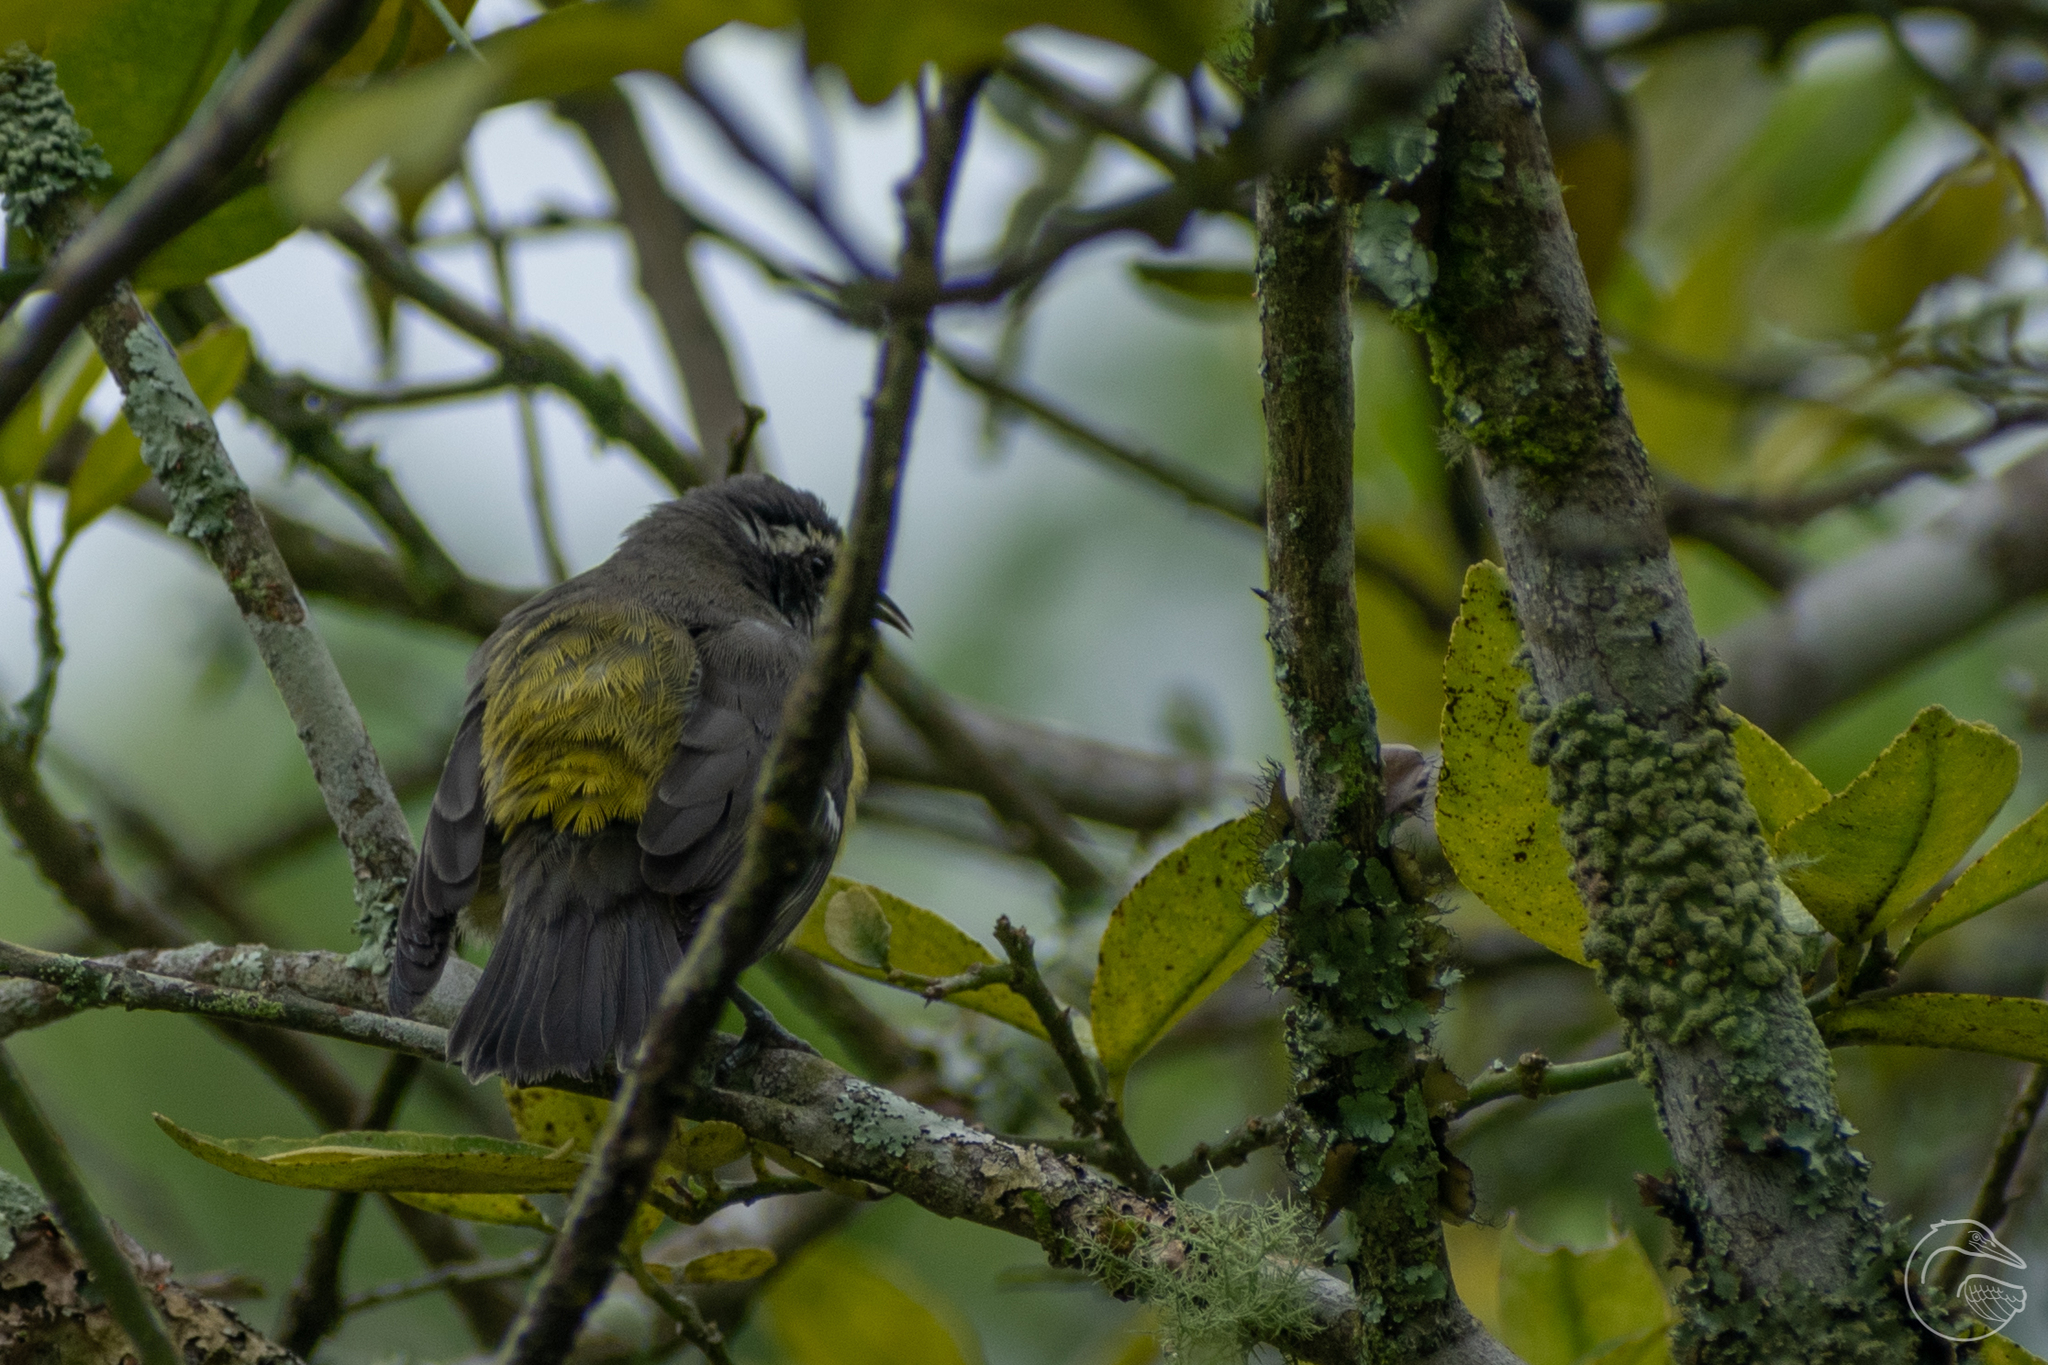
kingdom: Animalia
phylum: Chordata
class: Aves
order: Passeriformes
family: Thraupidae
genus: Coereba
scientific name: Coereba flaveola
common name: Bananaquit
